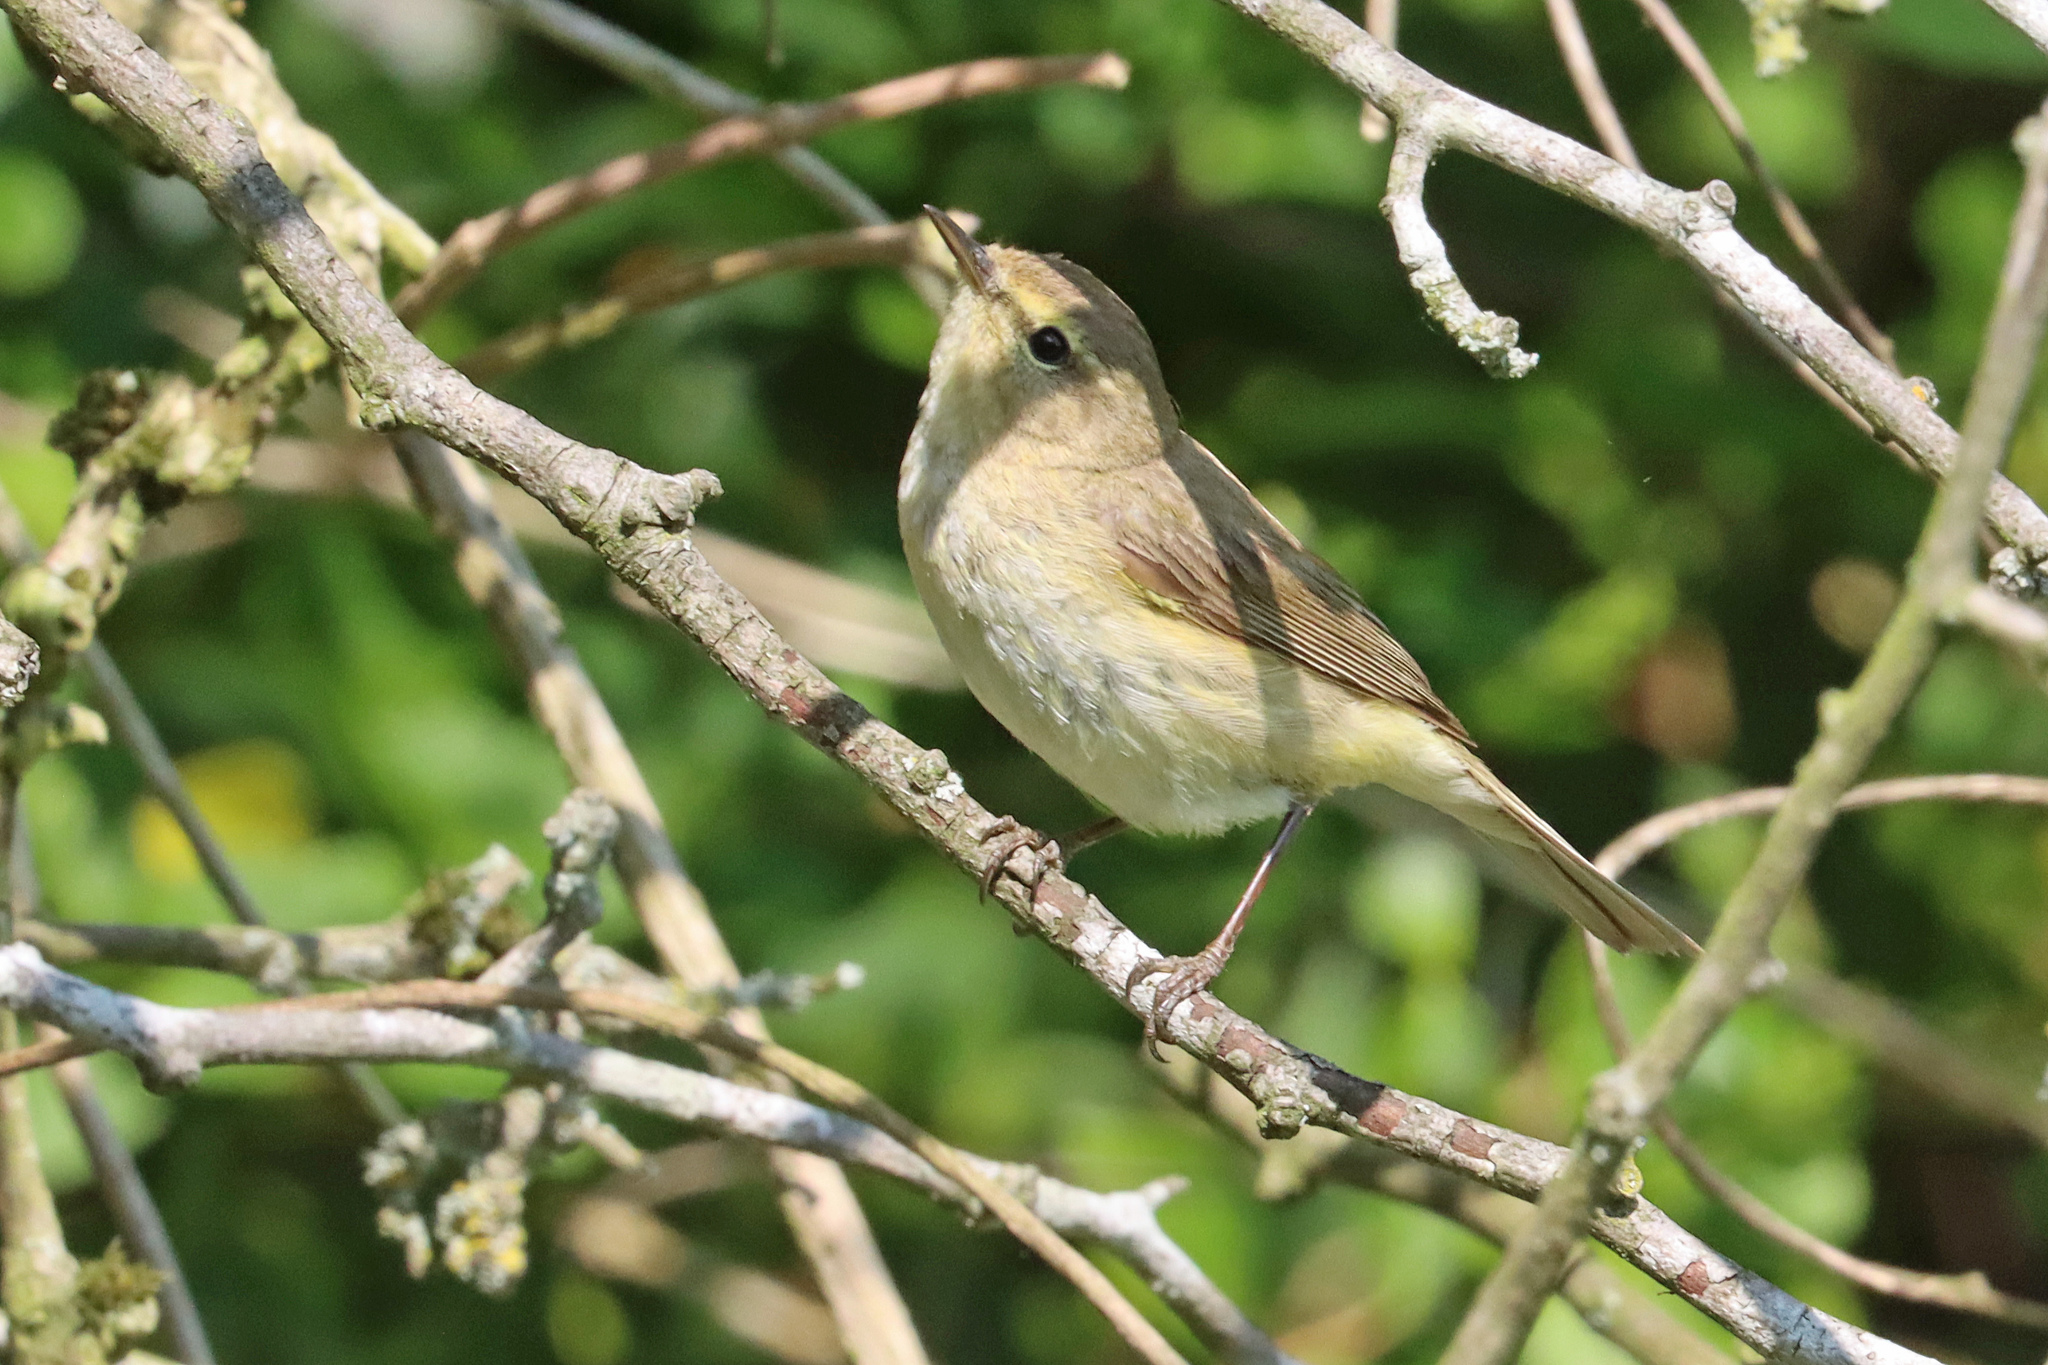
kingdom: Animalia
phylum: Chordata
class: Aves
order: Passeriformes
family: Phylloscopidae
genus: Phylloscopus
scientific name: Phylloscopus collybita
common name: Common chiffchaff
